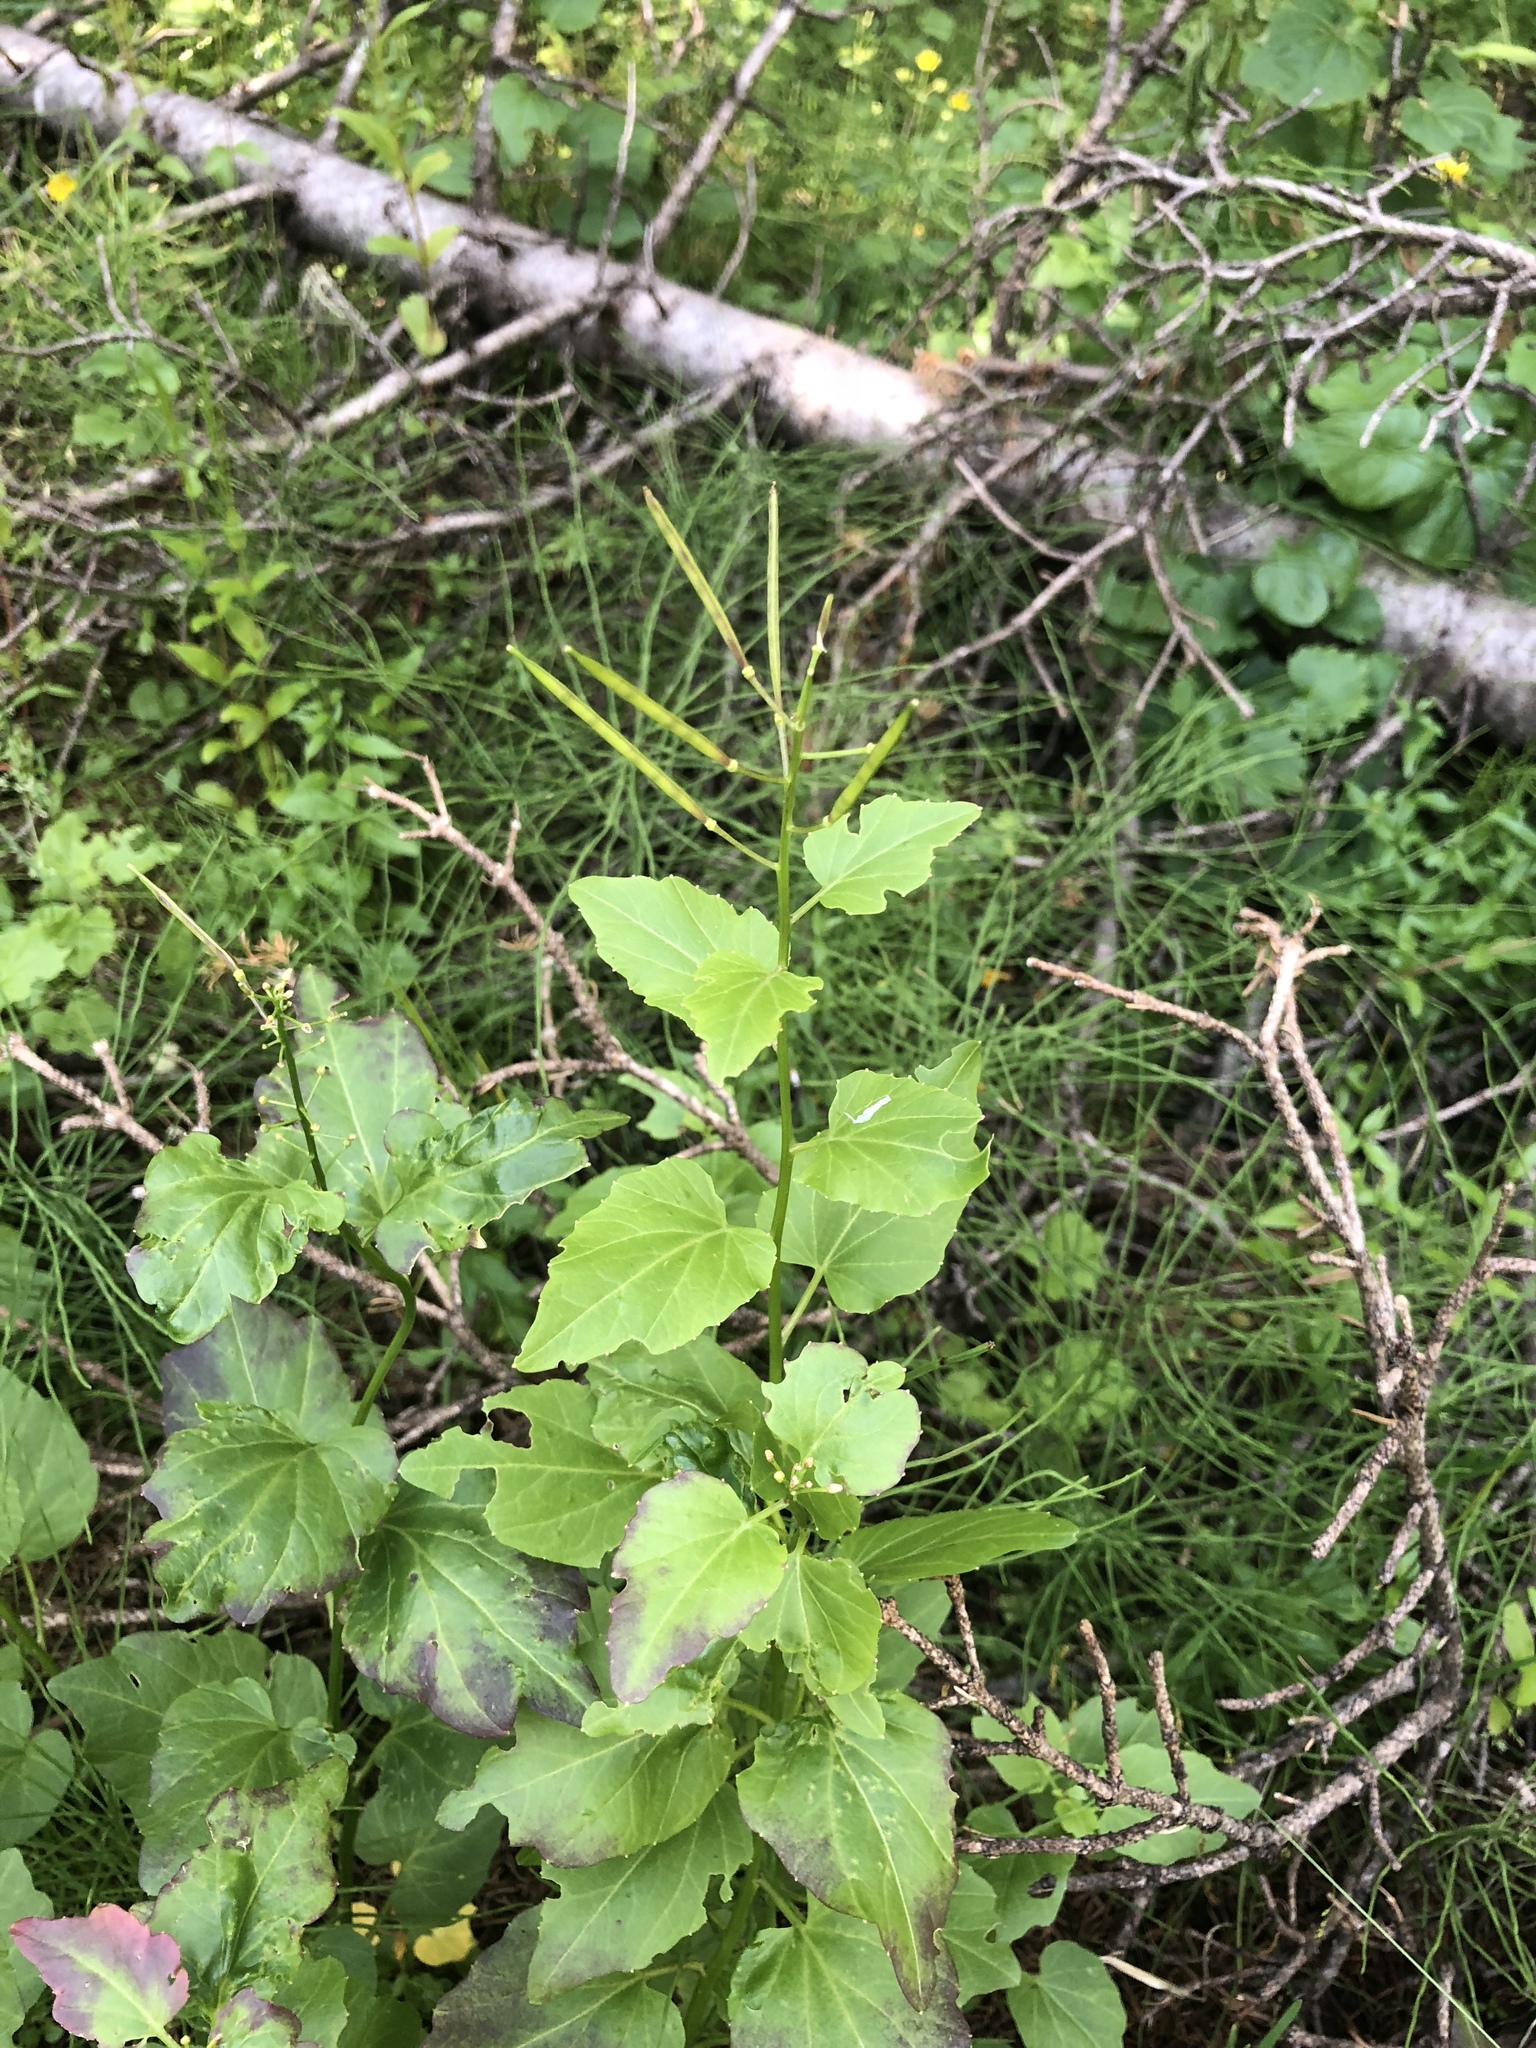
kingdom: Plantae
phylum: Tracheophyta
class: Magnoliopsida
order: Brassicales
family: Brassicaceae
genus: Cardamine
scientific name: Cardamine cordifolia
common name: Heart-leaf bittercress
